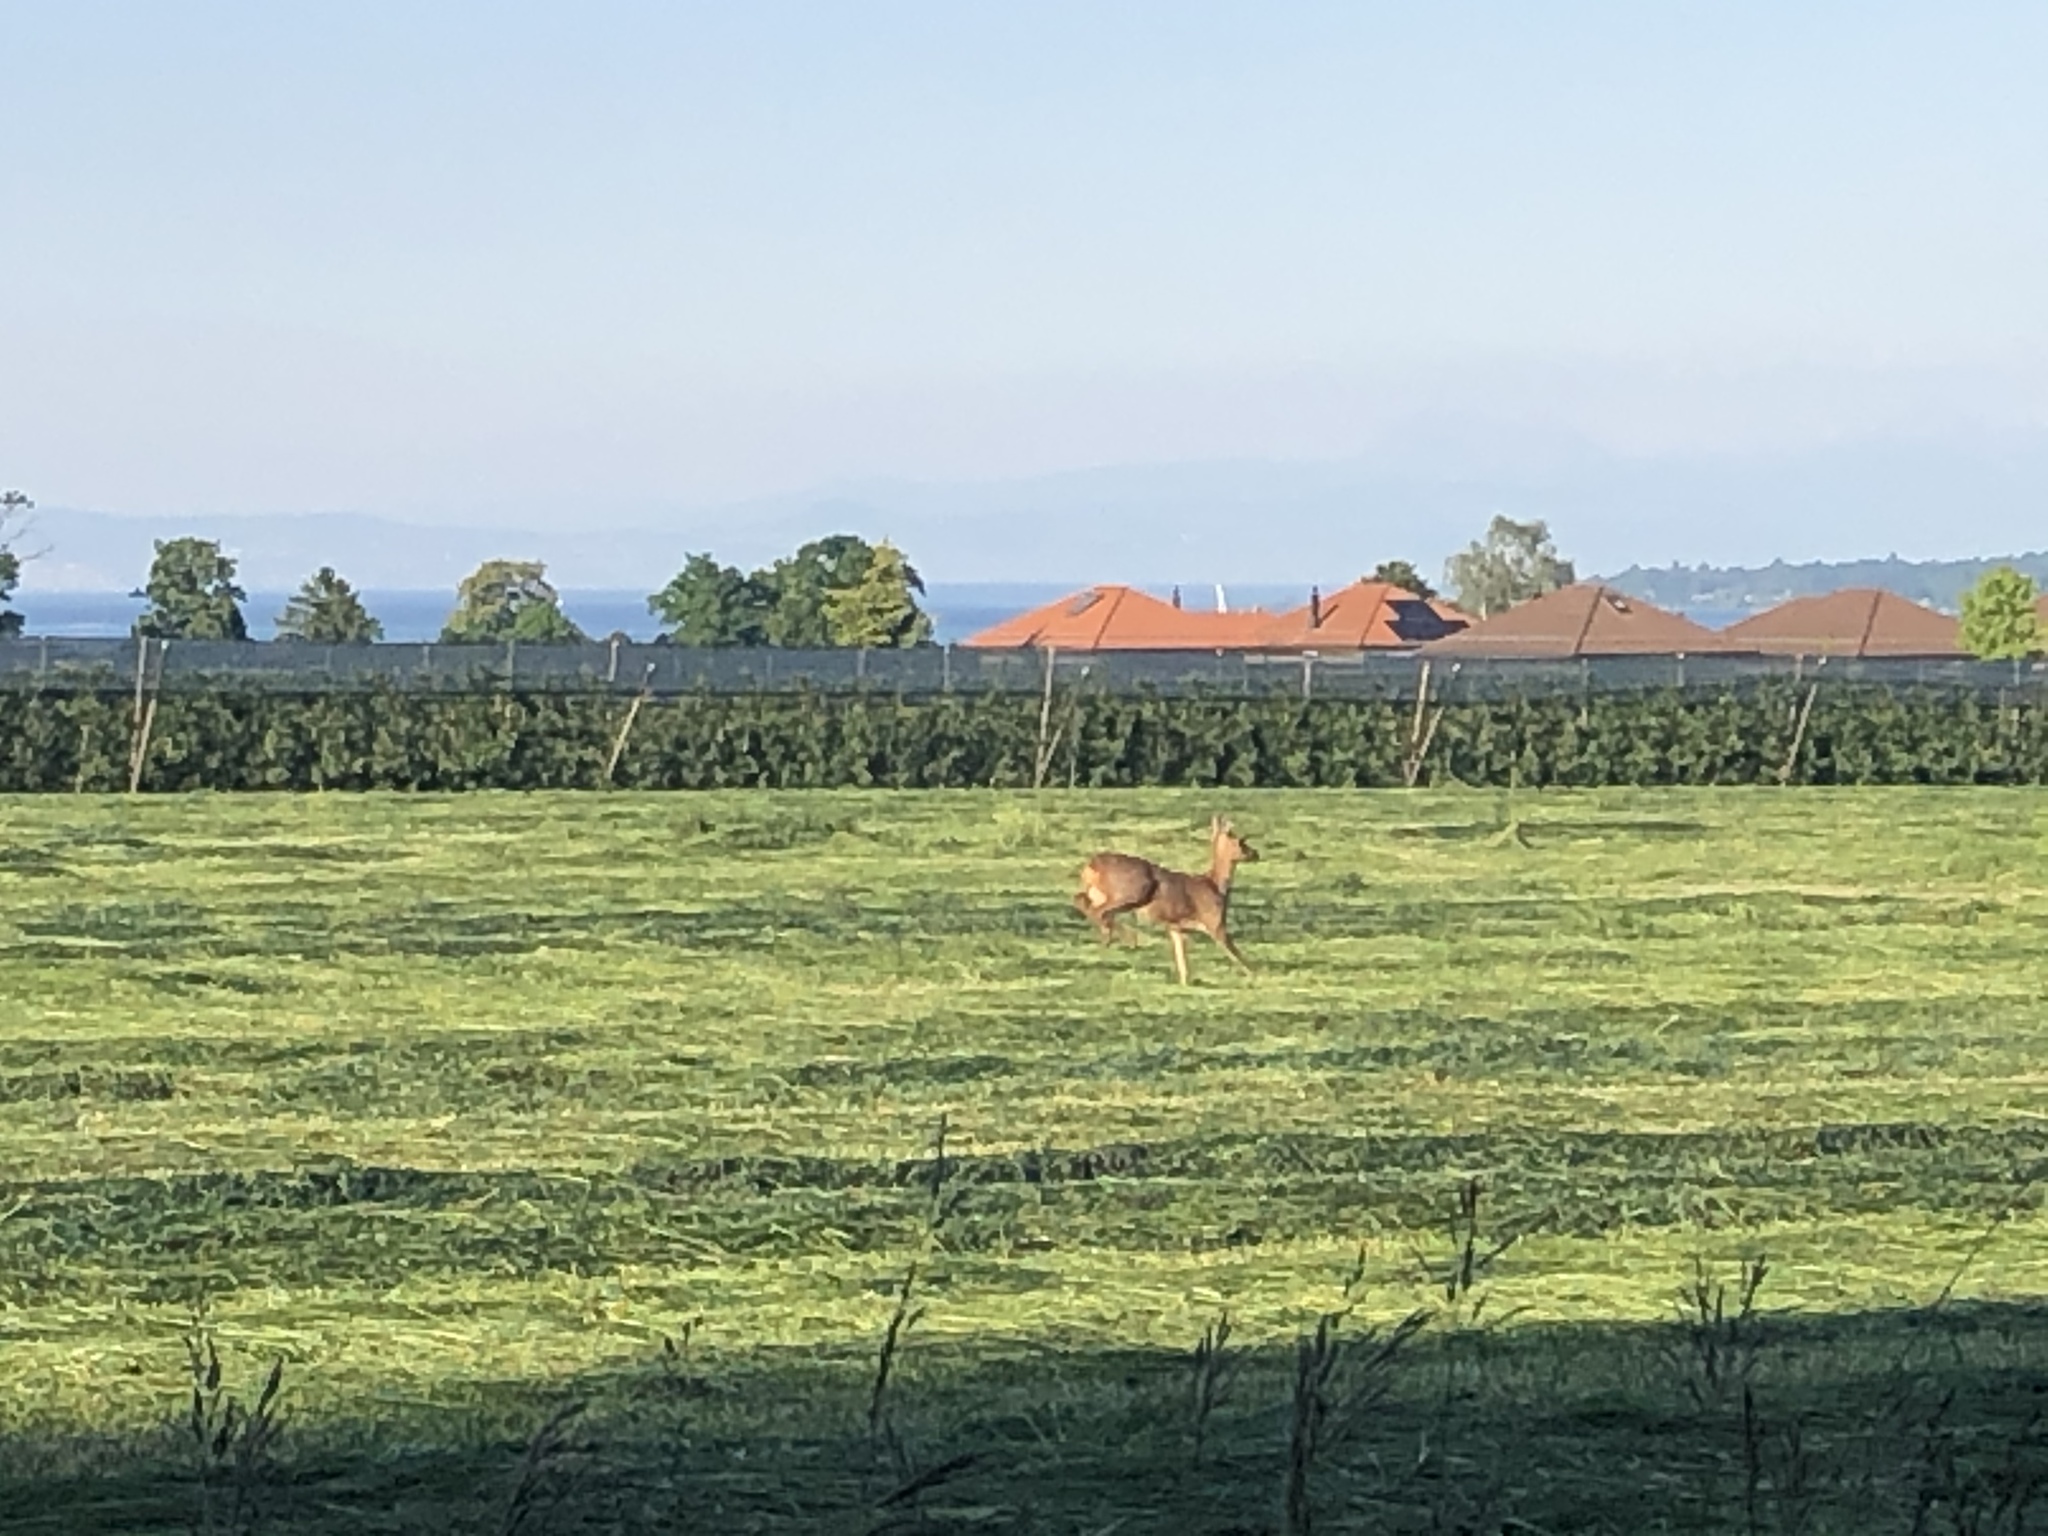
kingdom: Animalia
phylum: Chordata
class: Mammalia
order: Artiodactyla
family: Cervidae
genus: Capreolus
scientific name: Capreolus capreolus
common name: Western roe deer
